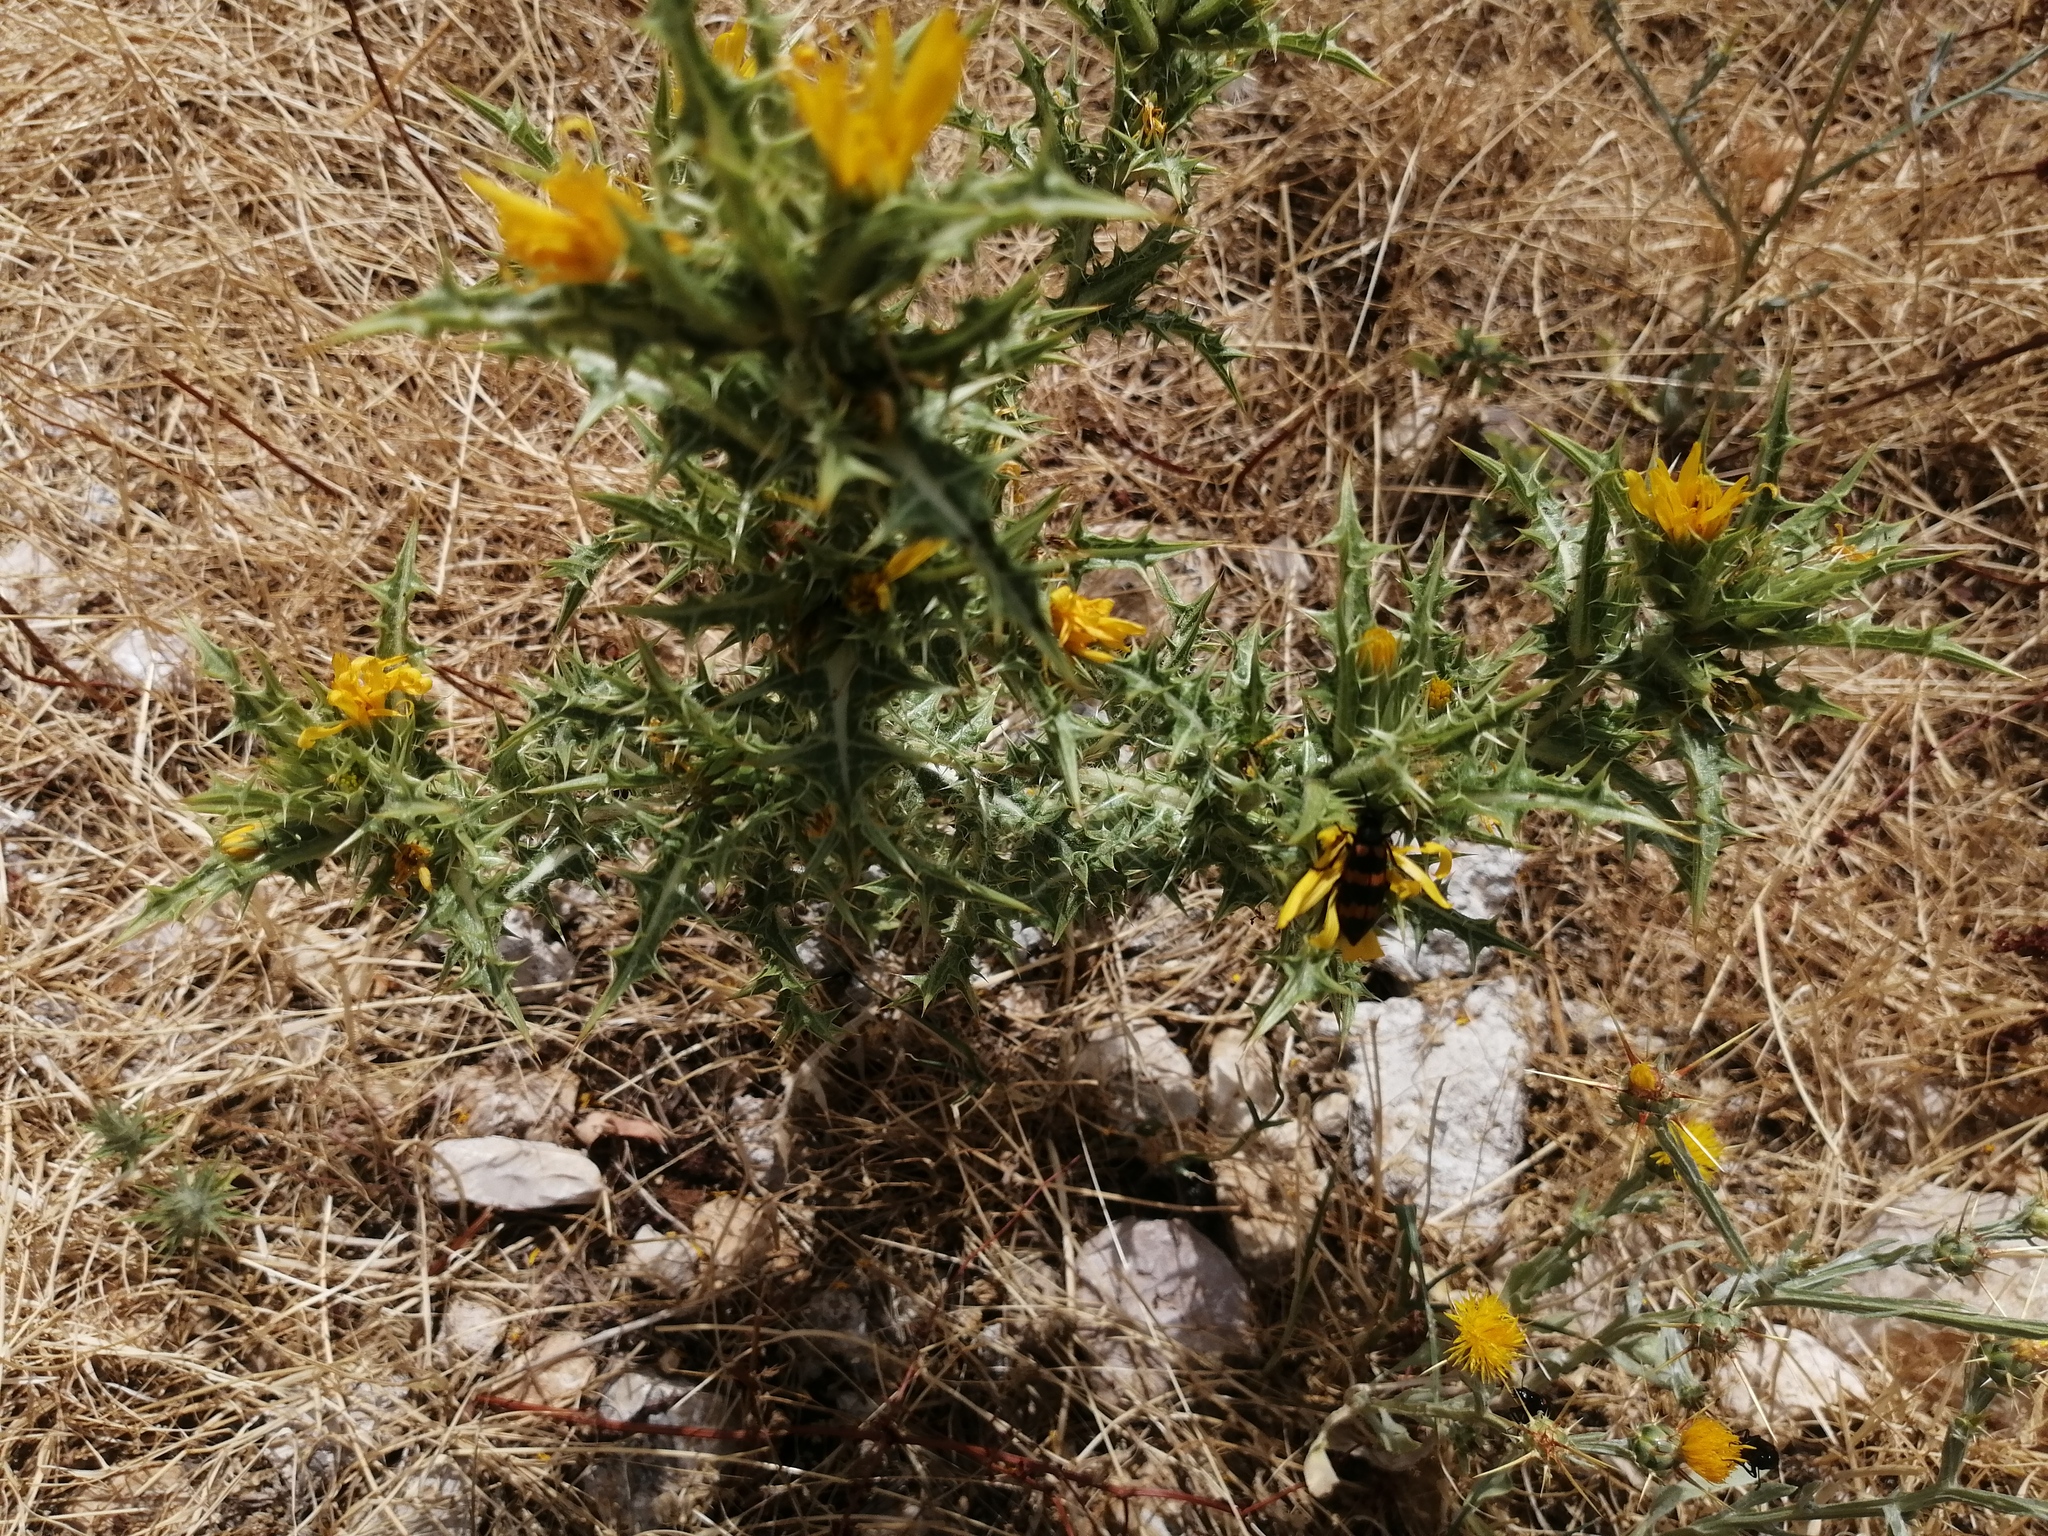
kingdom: Plantae
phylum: Tracheophyta
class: Magnoliopsida
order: Asterales
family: Asteraceae
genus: Scolymus
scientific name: Scolymus hispanicus
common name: Golden thistle
